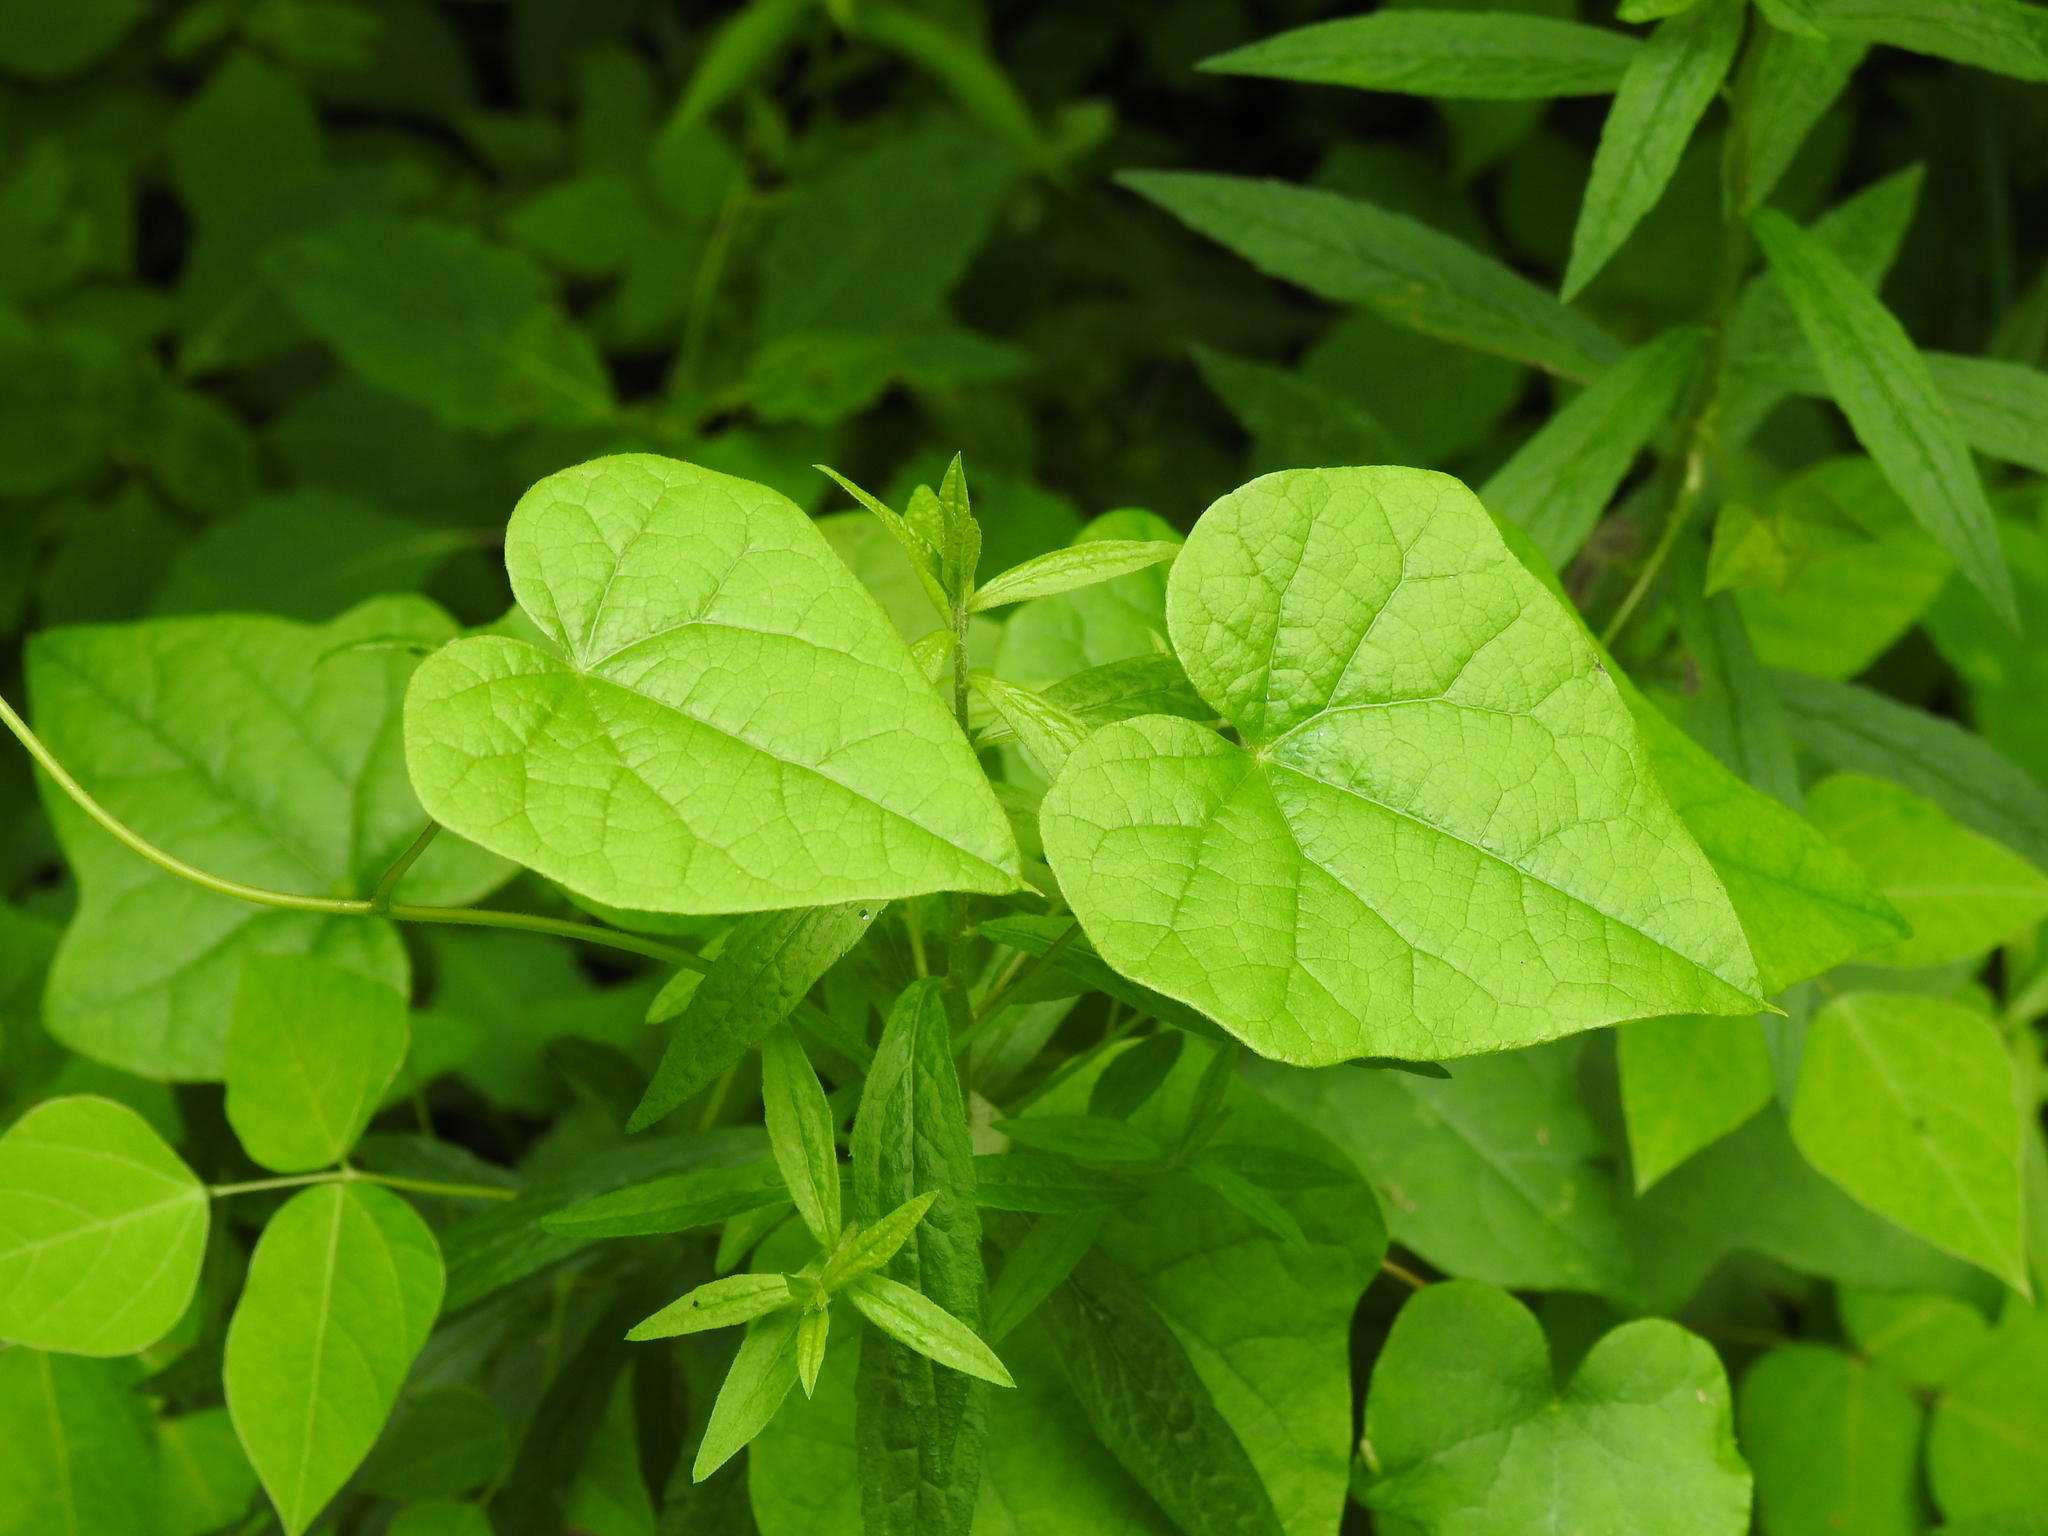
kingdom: Plantae
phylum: Tracheophyta
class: Magnoliopsida
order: Ranunculales
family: Menispermaceae
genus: Menispermum
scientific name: Menispermum canadense
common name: Moonseed
